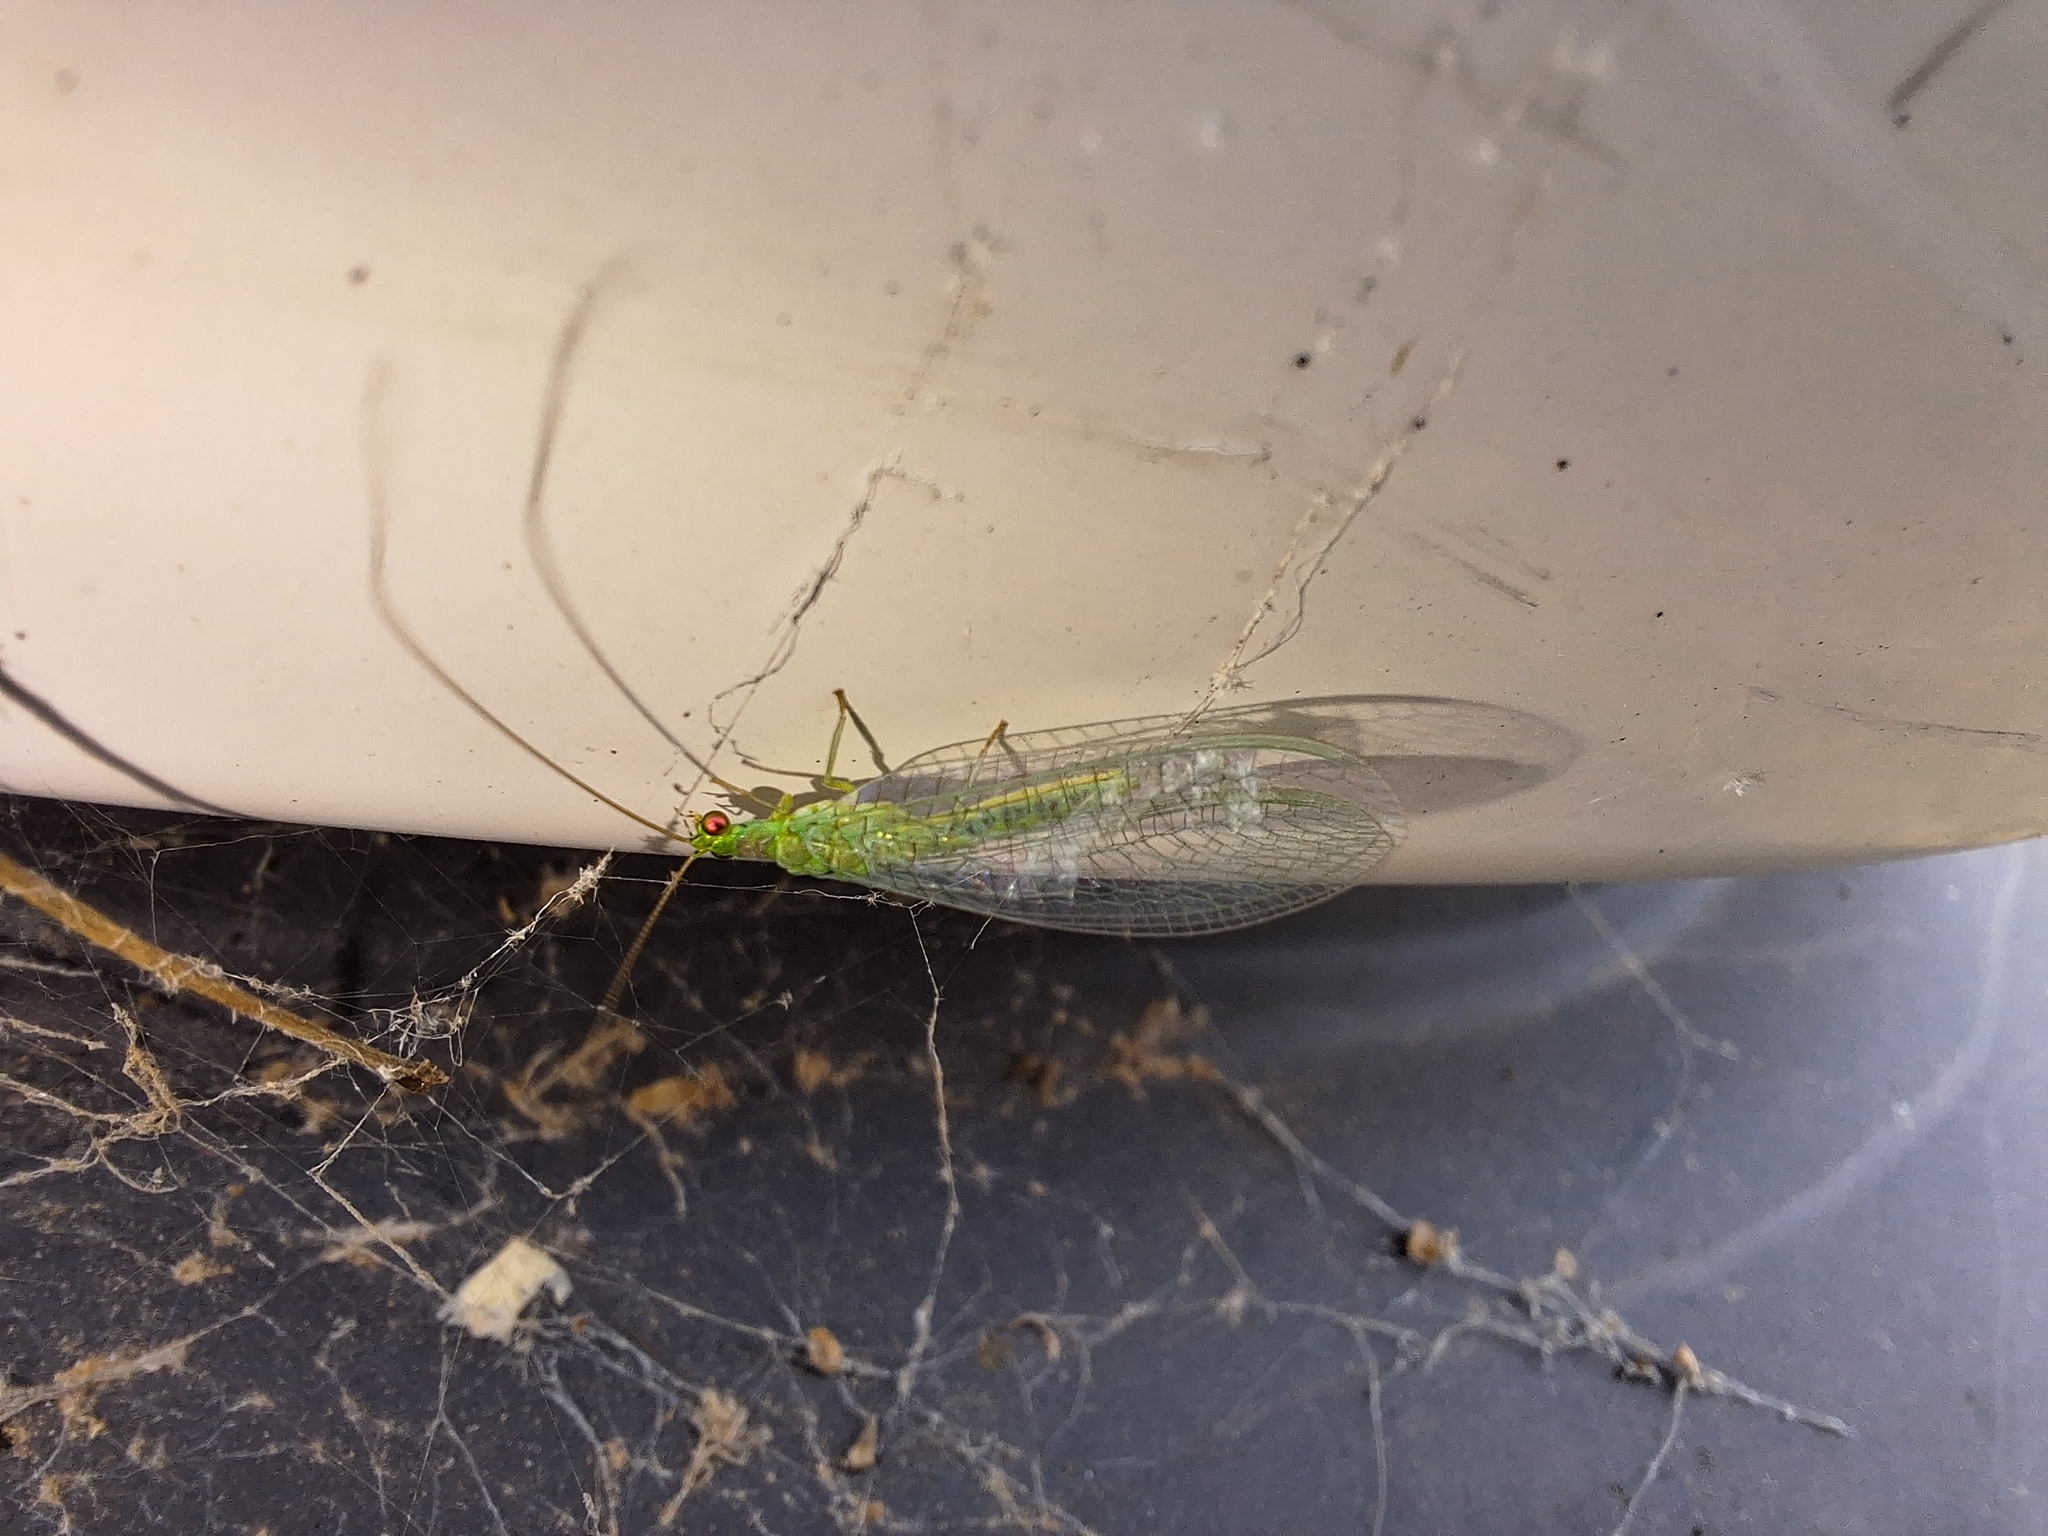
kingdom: Animalia
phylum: Arthropoda
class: Insecta
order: Neuroptera
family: Chrysopidae
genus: Mallada
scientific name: Mallada signatus
